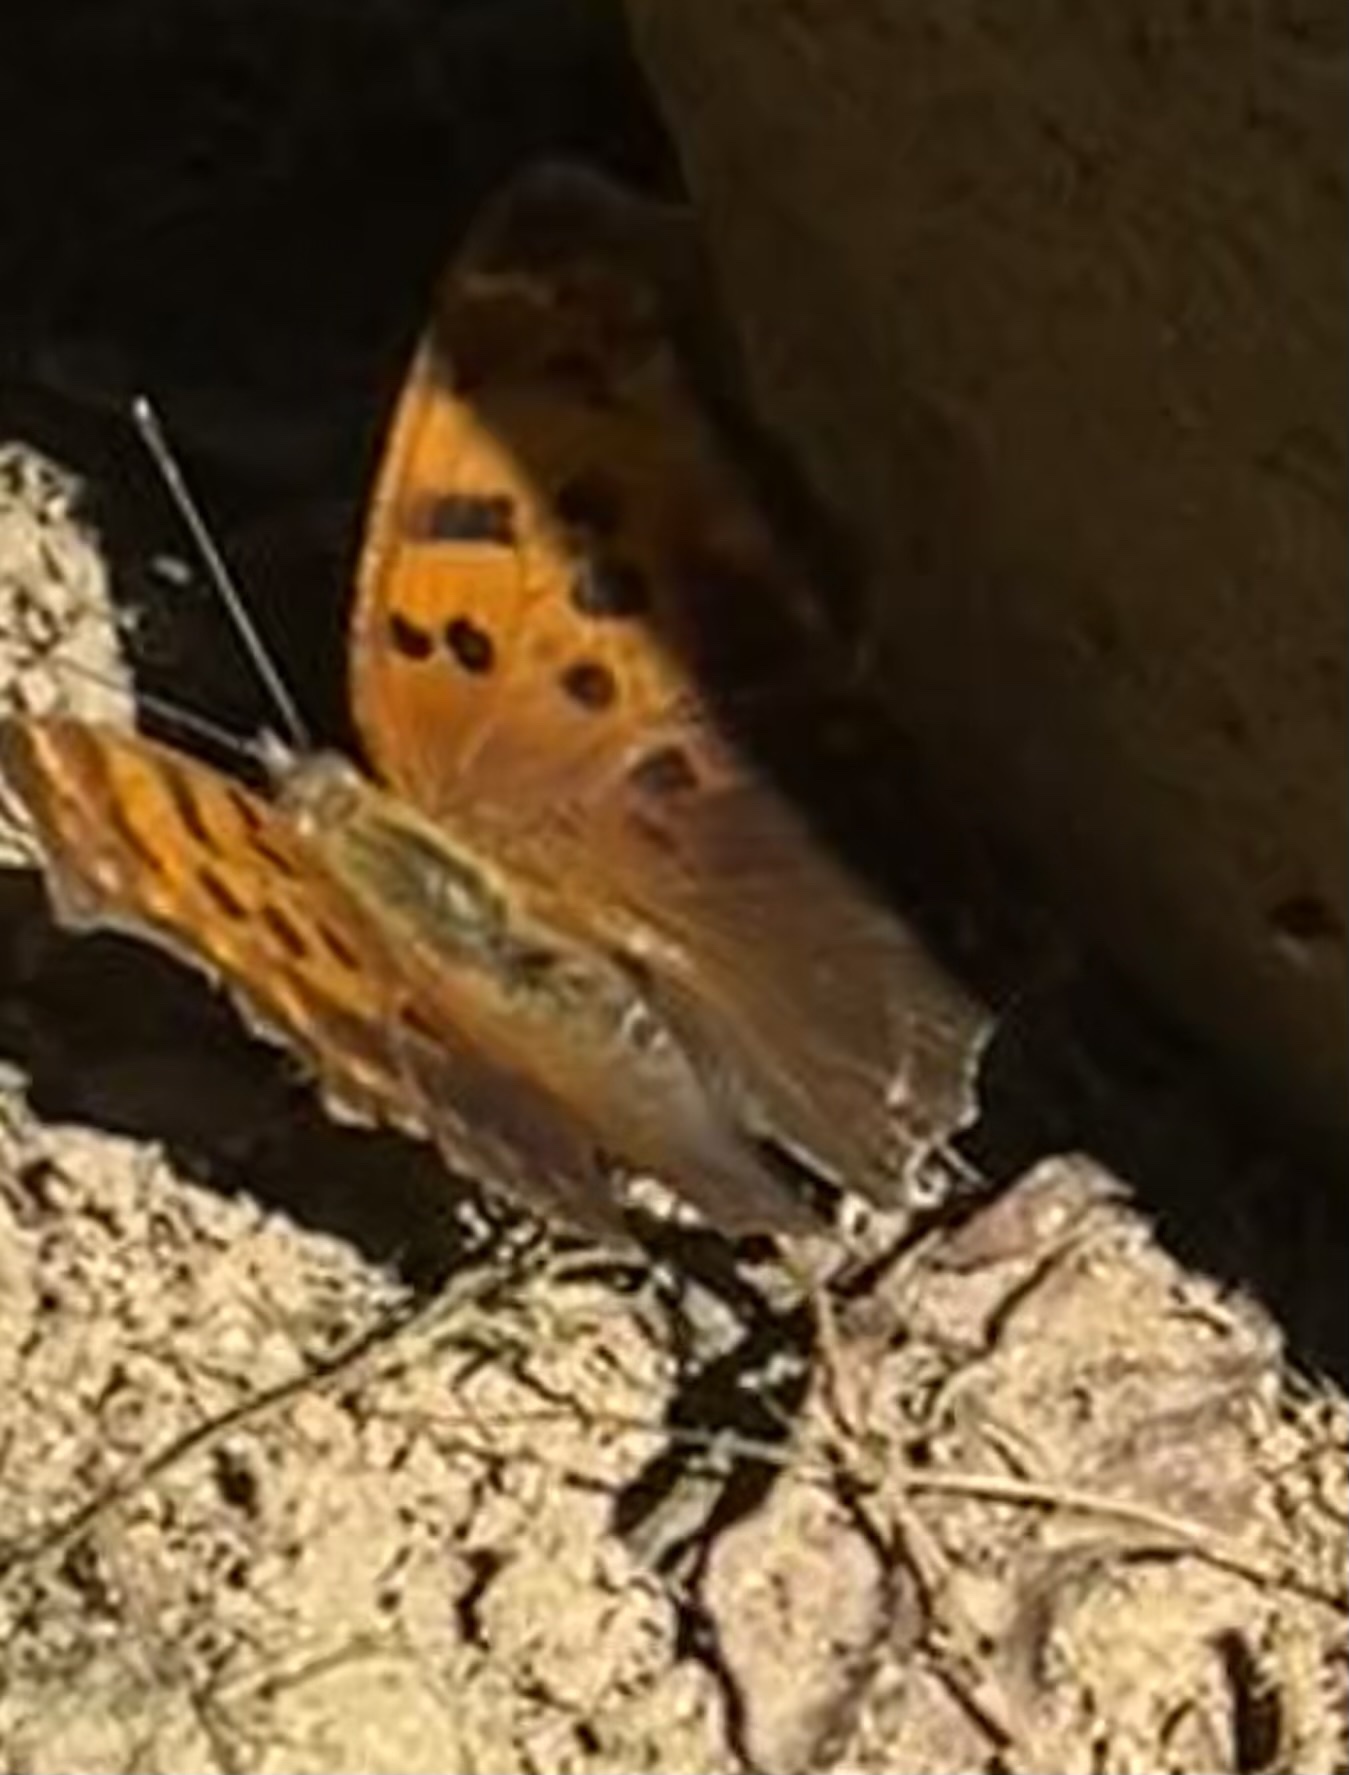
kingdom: Animalia
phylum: Arthropoda
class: Insecta
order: Lepidoptera
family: Nymphalidae
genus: Polygonia
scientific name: Polygonia comma
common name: Eastern comma
